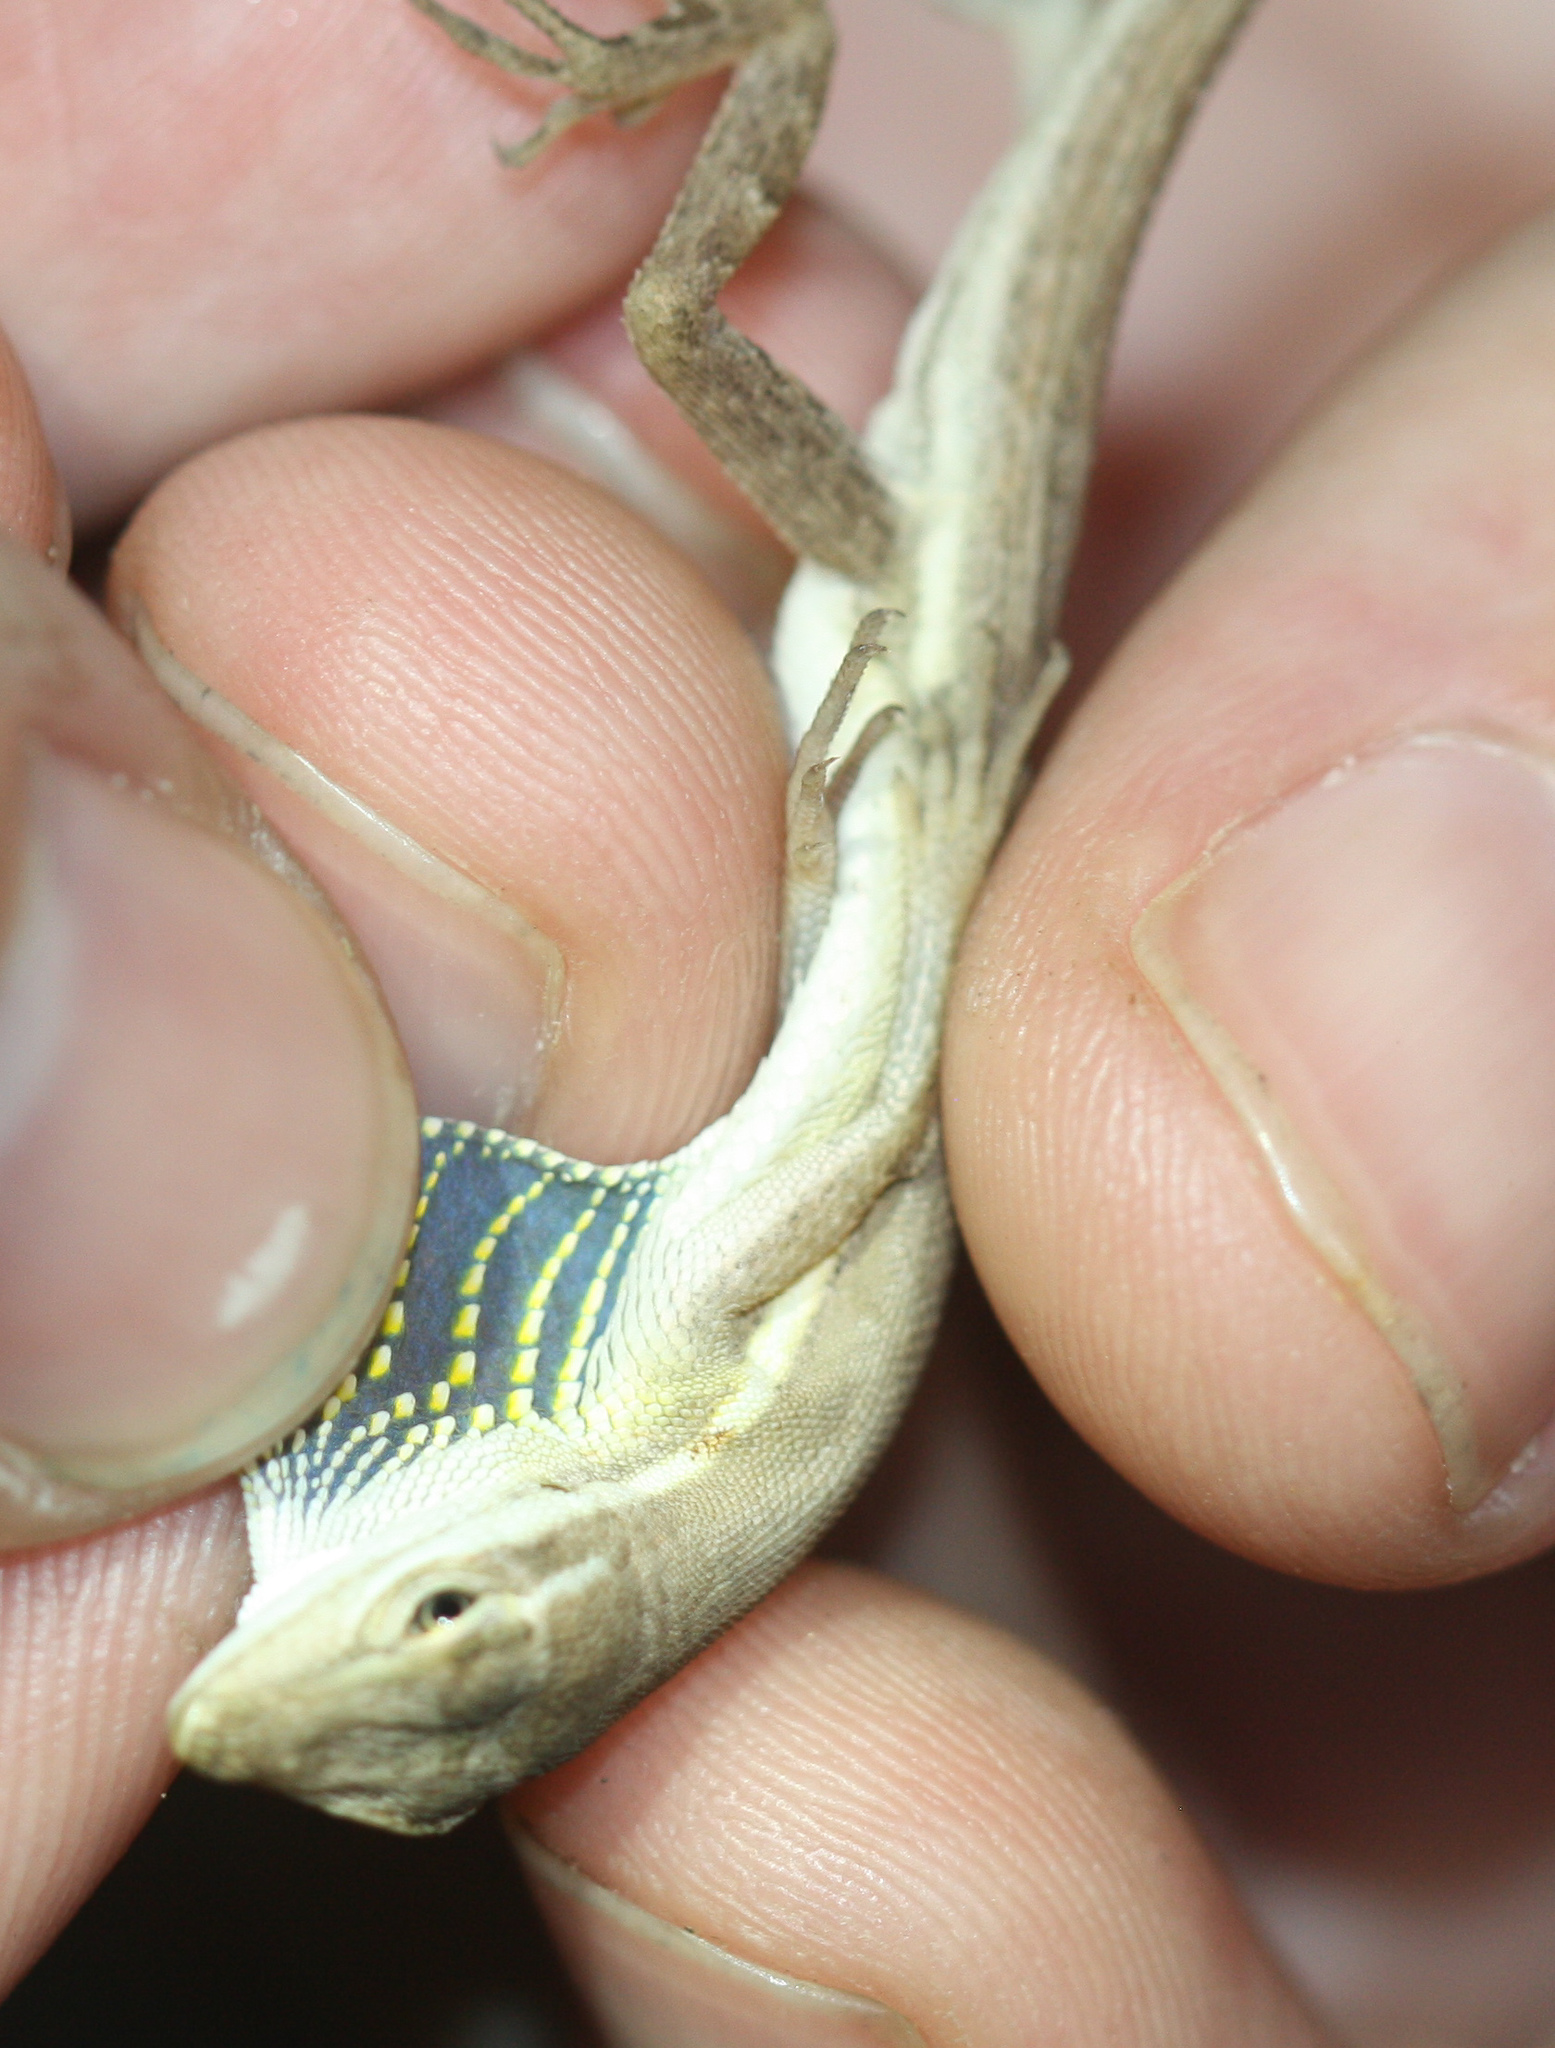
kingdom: Animalia
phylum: Chordata
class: Squamata
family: Dactyloidae
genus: Anolis
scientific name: Anolis auratus
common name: Grass anole
